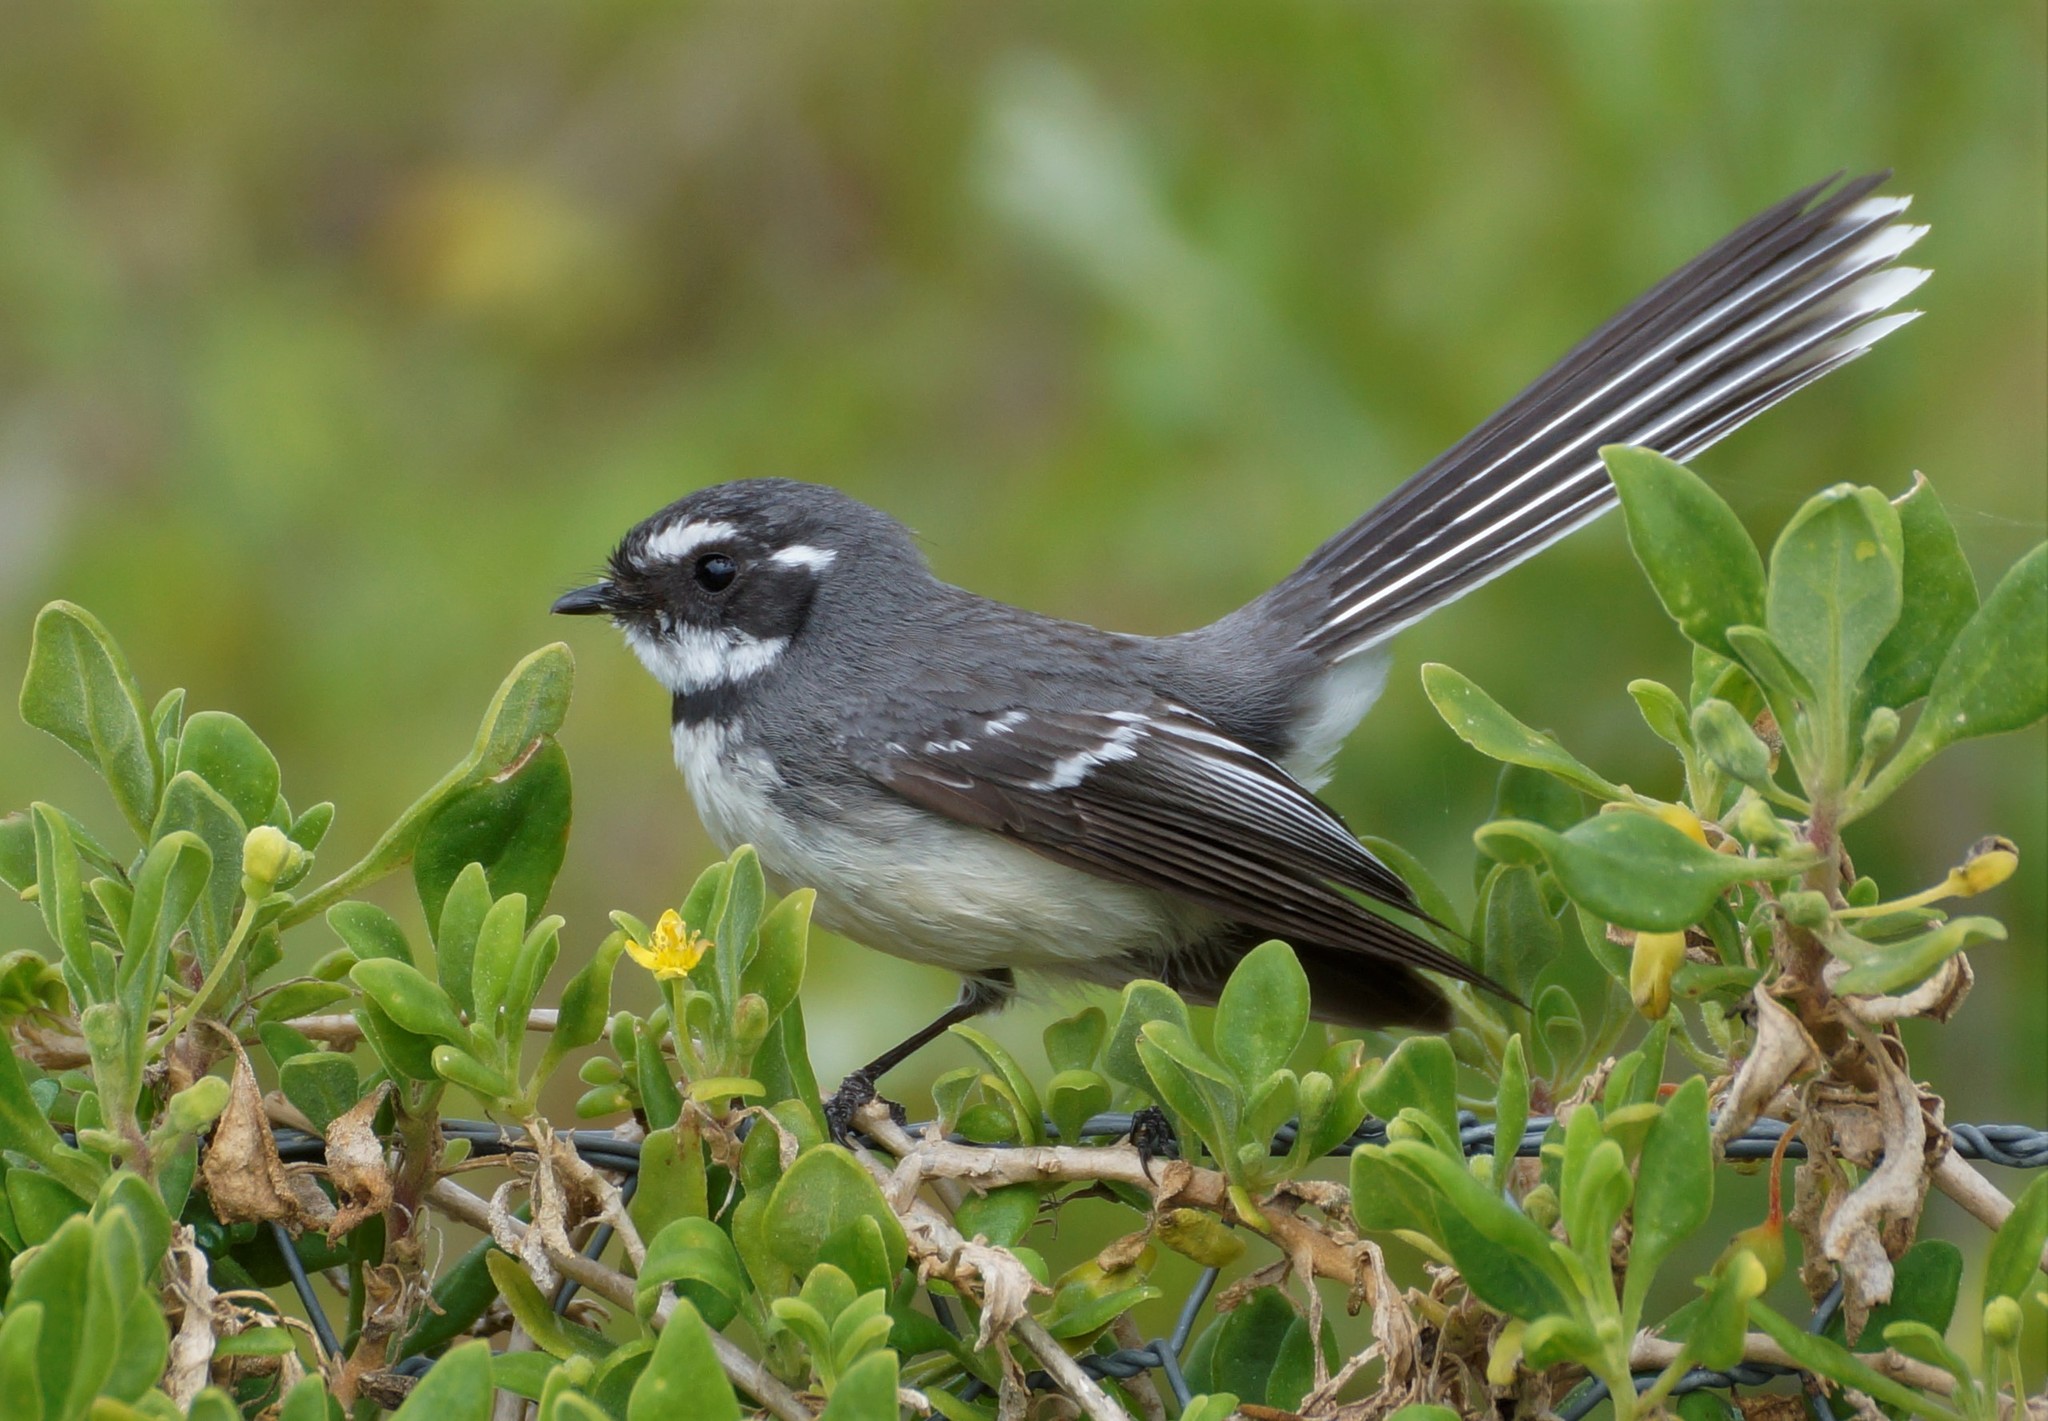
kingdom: Animalia
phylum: Chordata
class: Aves
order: Passeriformes
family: Rhipiduridae
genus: Rhipidura
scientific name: Rhipidura albiscapa
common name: Grey fantail
